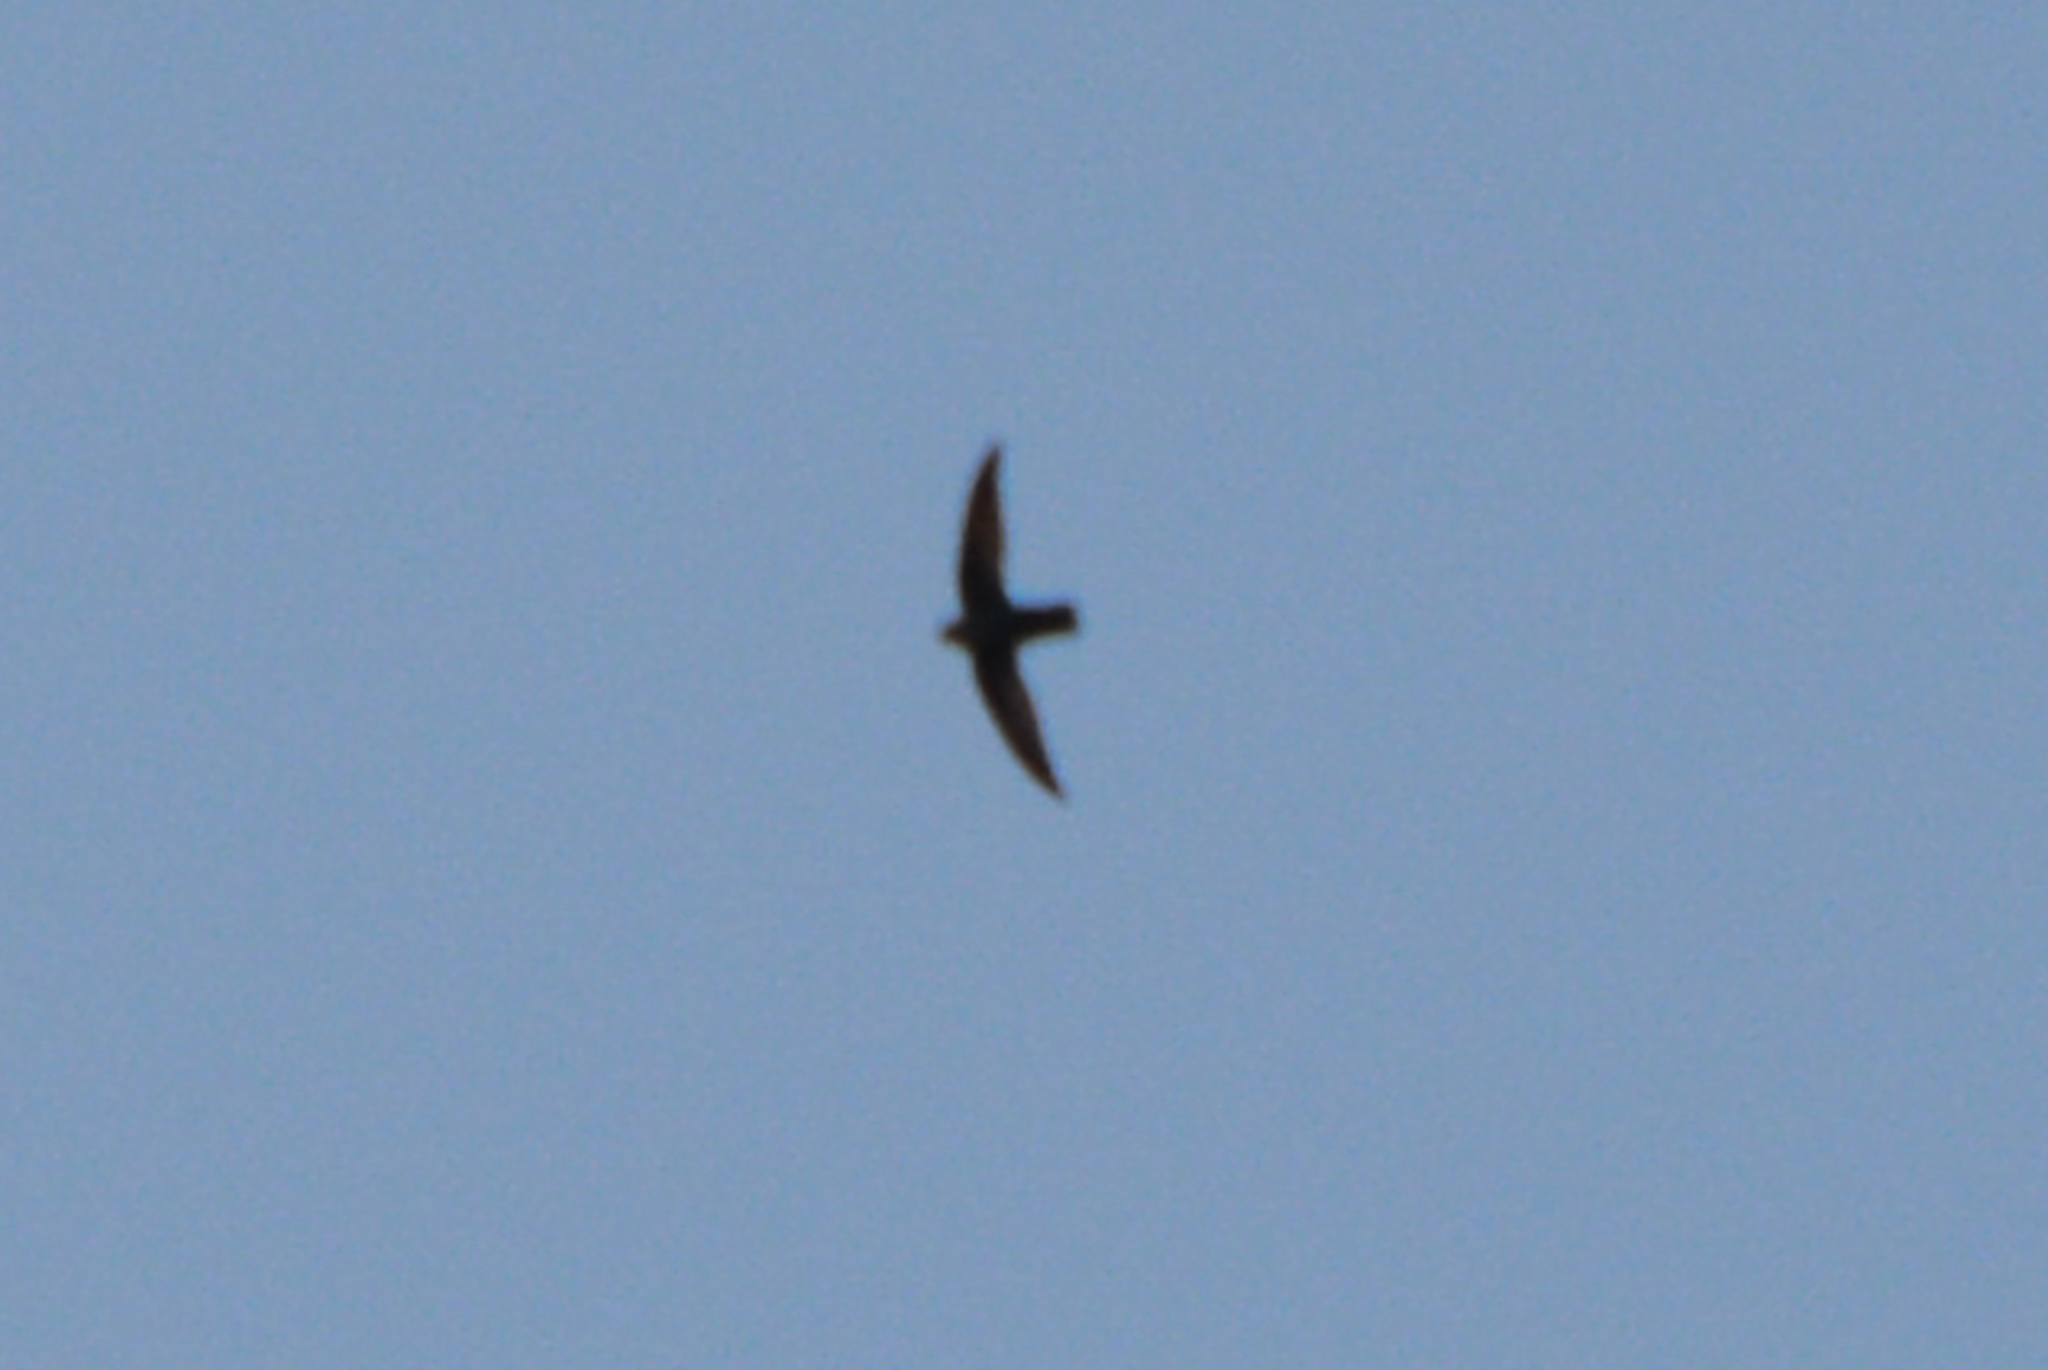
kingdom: Animalia
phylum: Chordata
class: Aves
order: Apodiformes
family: Apodidae
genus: Chaetura
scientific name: Chaetura pelagica
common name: Chimney swift
